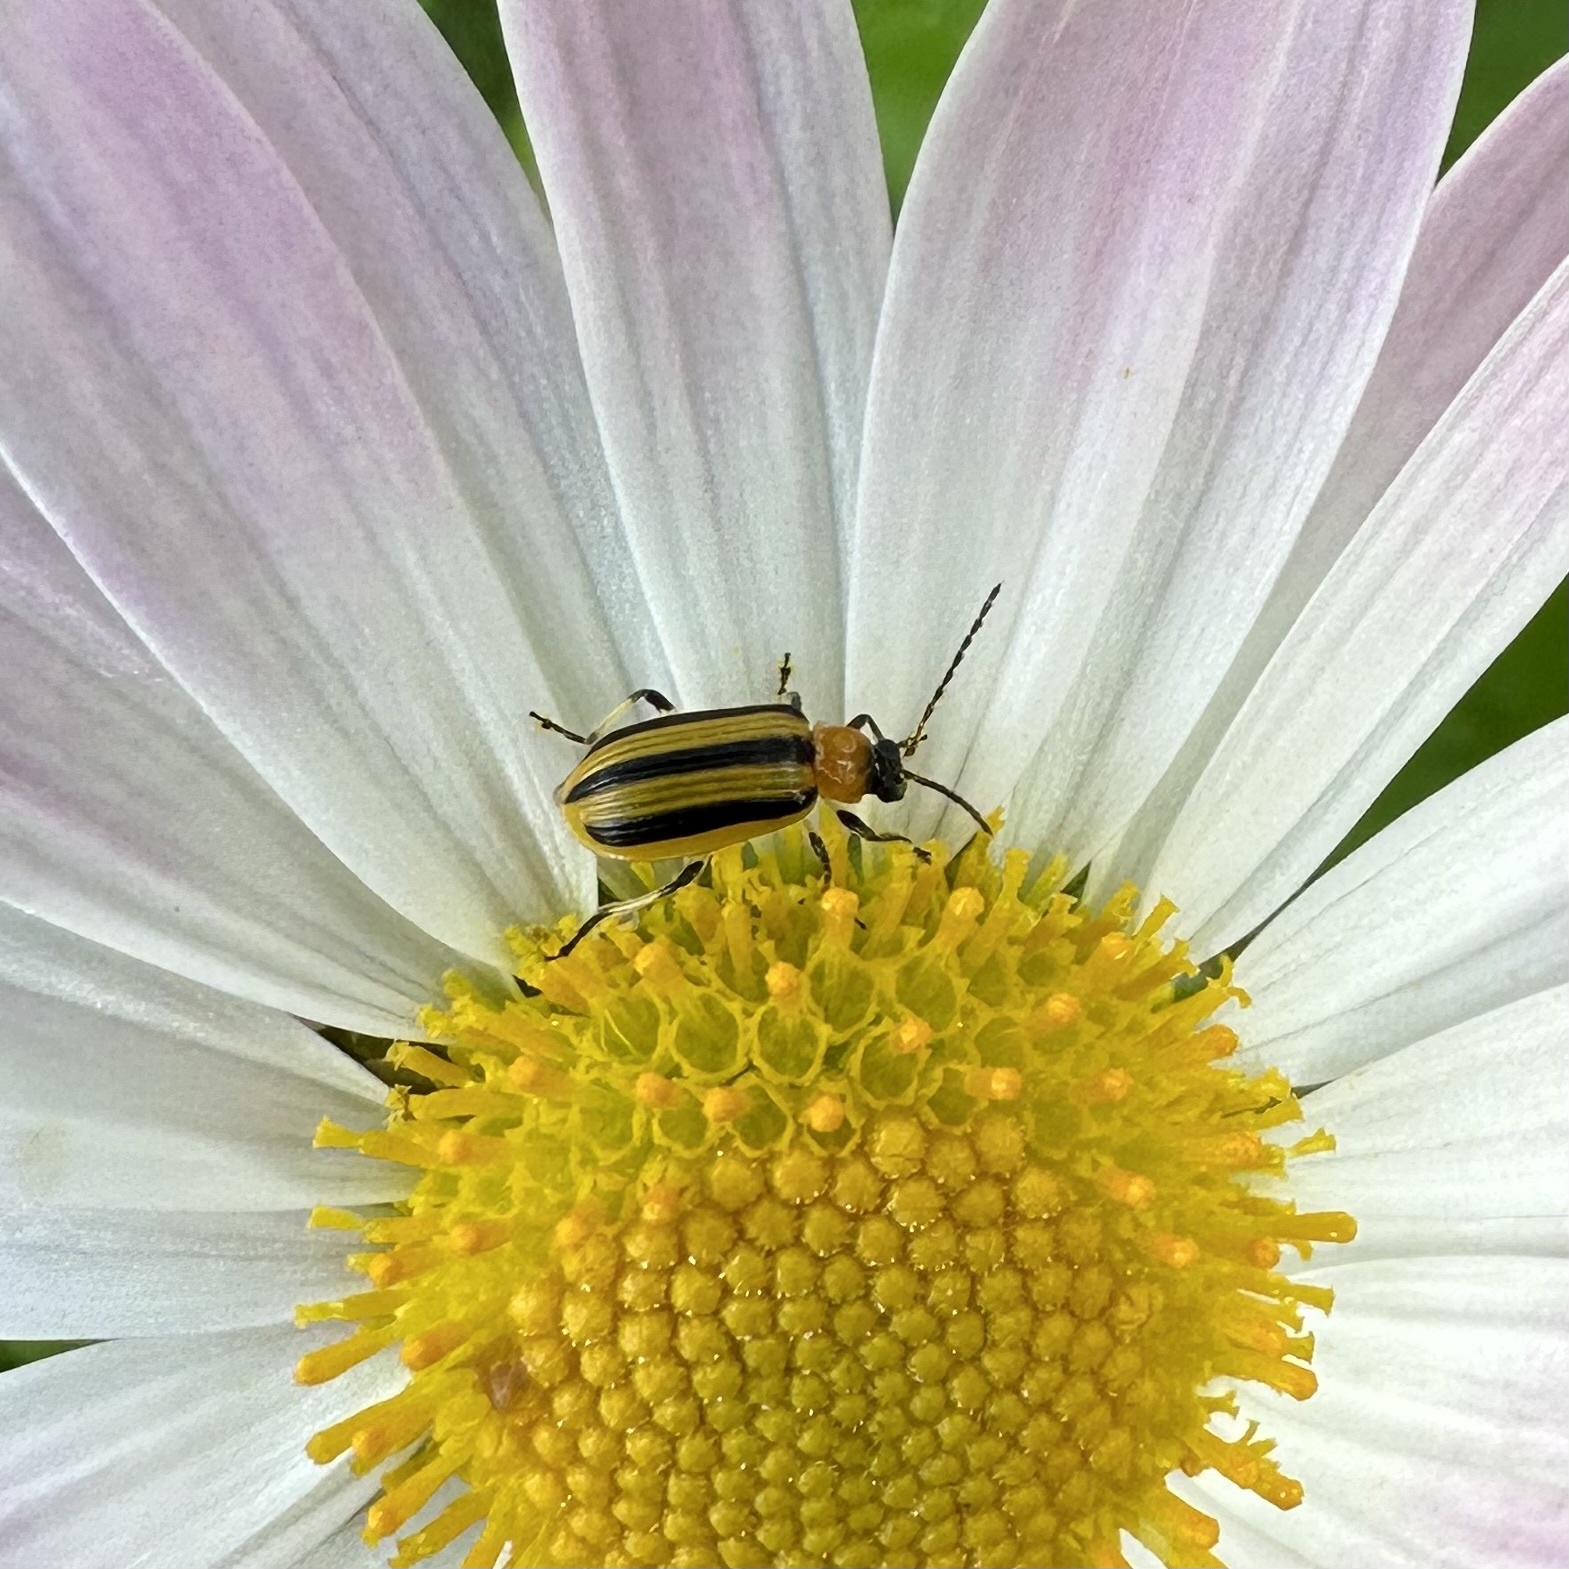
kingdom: Animalia
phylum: Arthropoda
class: Insecta
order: Coleoptera
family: Chrysomelidae
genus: Acalymma
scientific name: Acalymma vittatum
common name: Striped cucumber beetle
